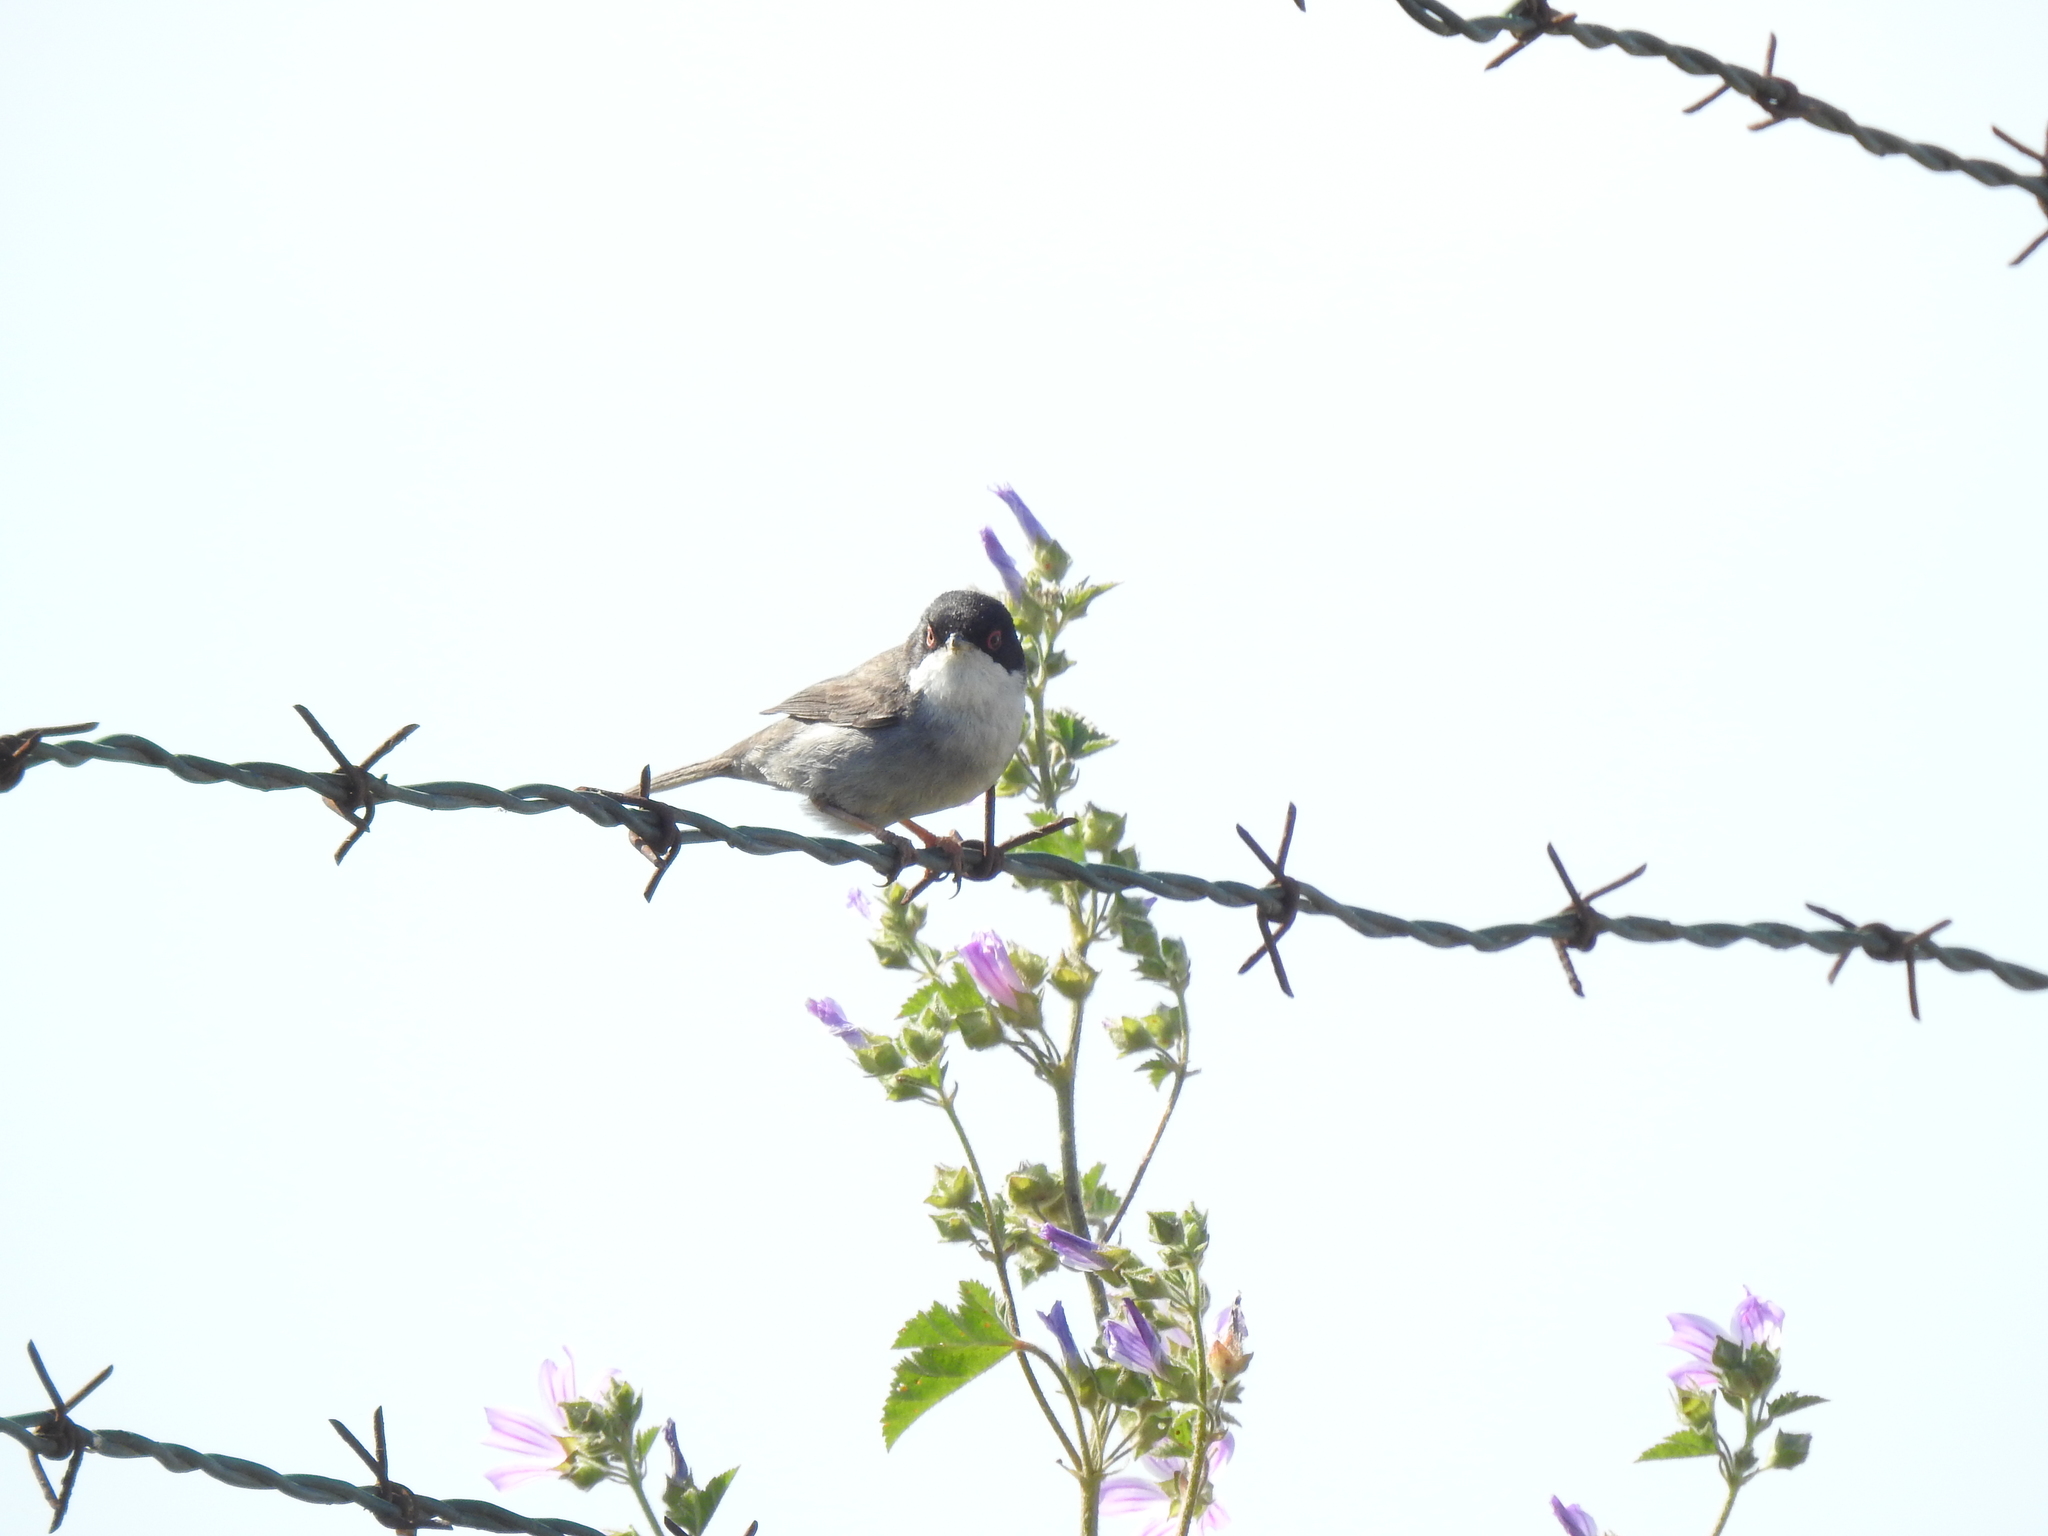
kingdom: Animalia
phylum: Chordata
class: Aves
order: Passeriformes
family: Sylviidae
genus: Curruca
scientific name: Curruca melanocephala
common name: Sardinian warbler
